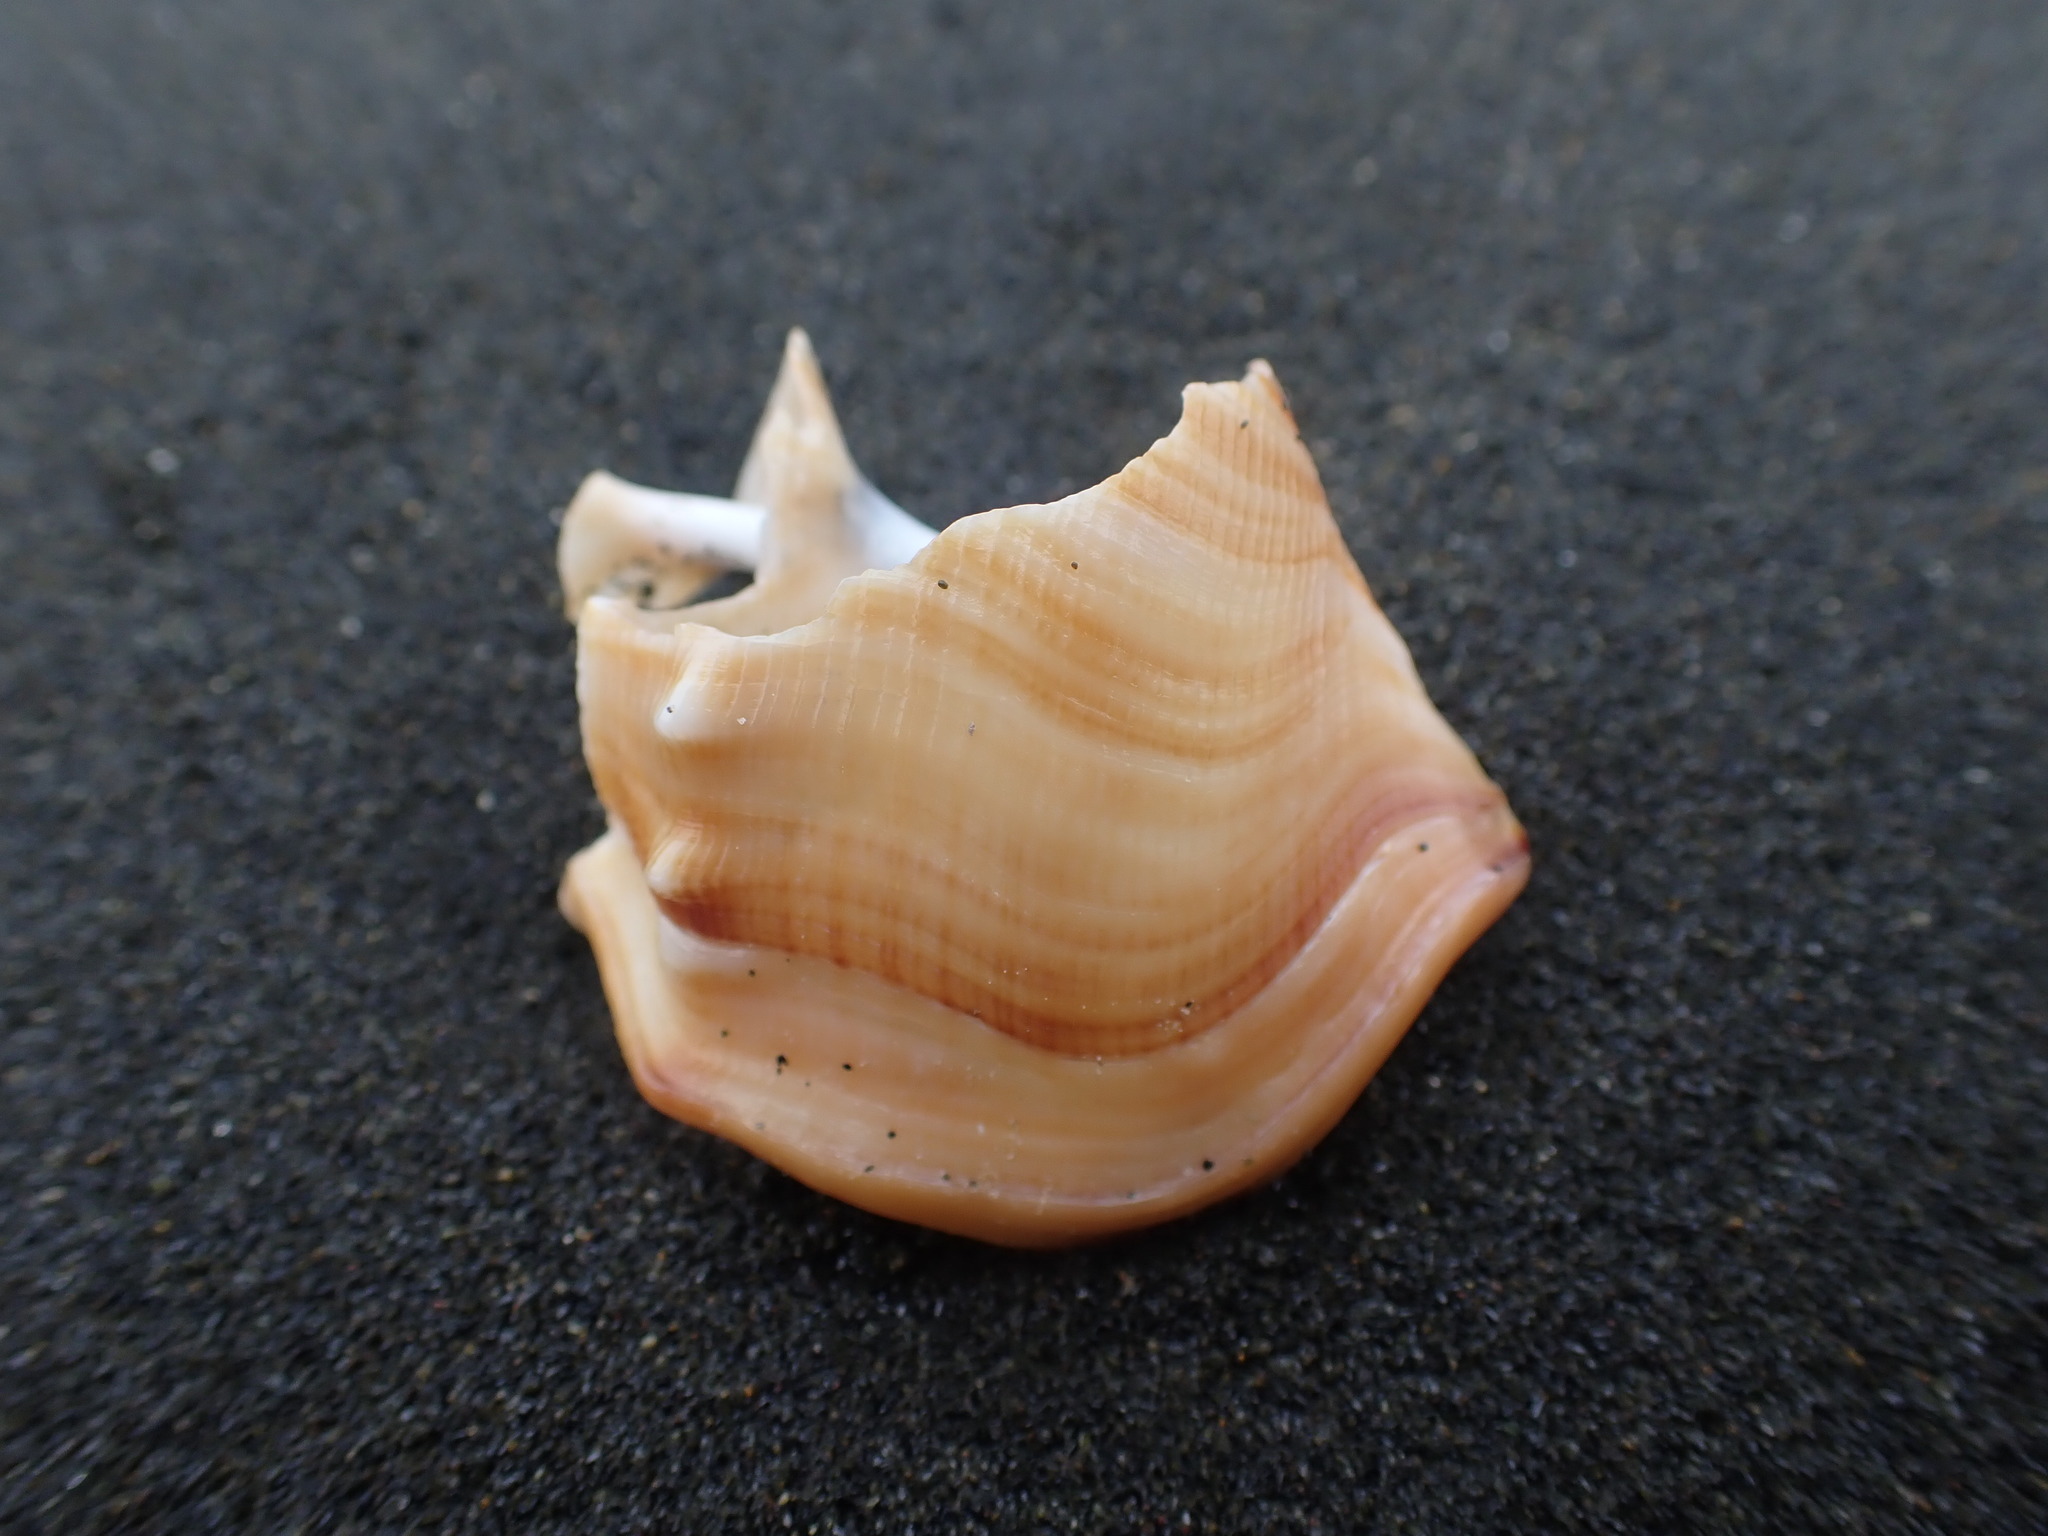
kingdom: Animalia
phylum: Mollusca
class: Gastropoda
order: Littorinimorpha
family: Struthiolariidae
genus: Struthiolaria
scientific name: Struthiolaria papulosa
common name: Large ostrich foot
